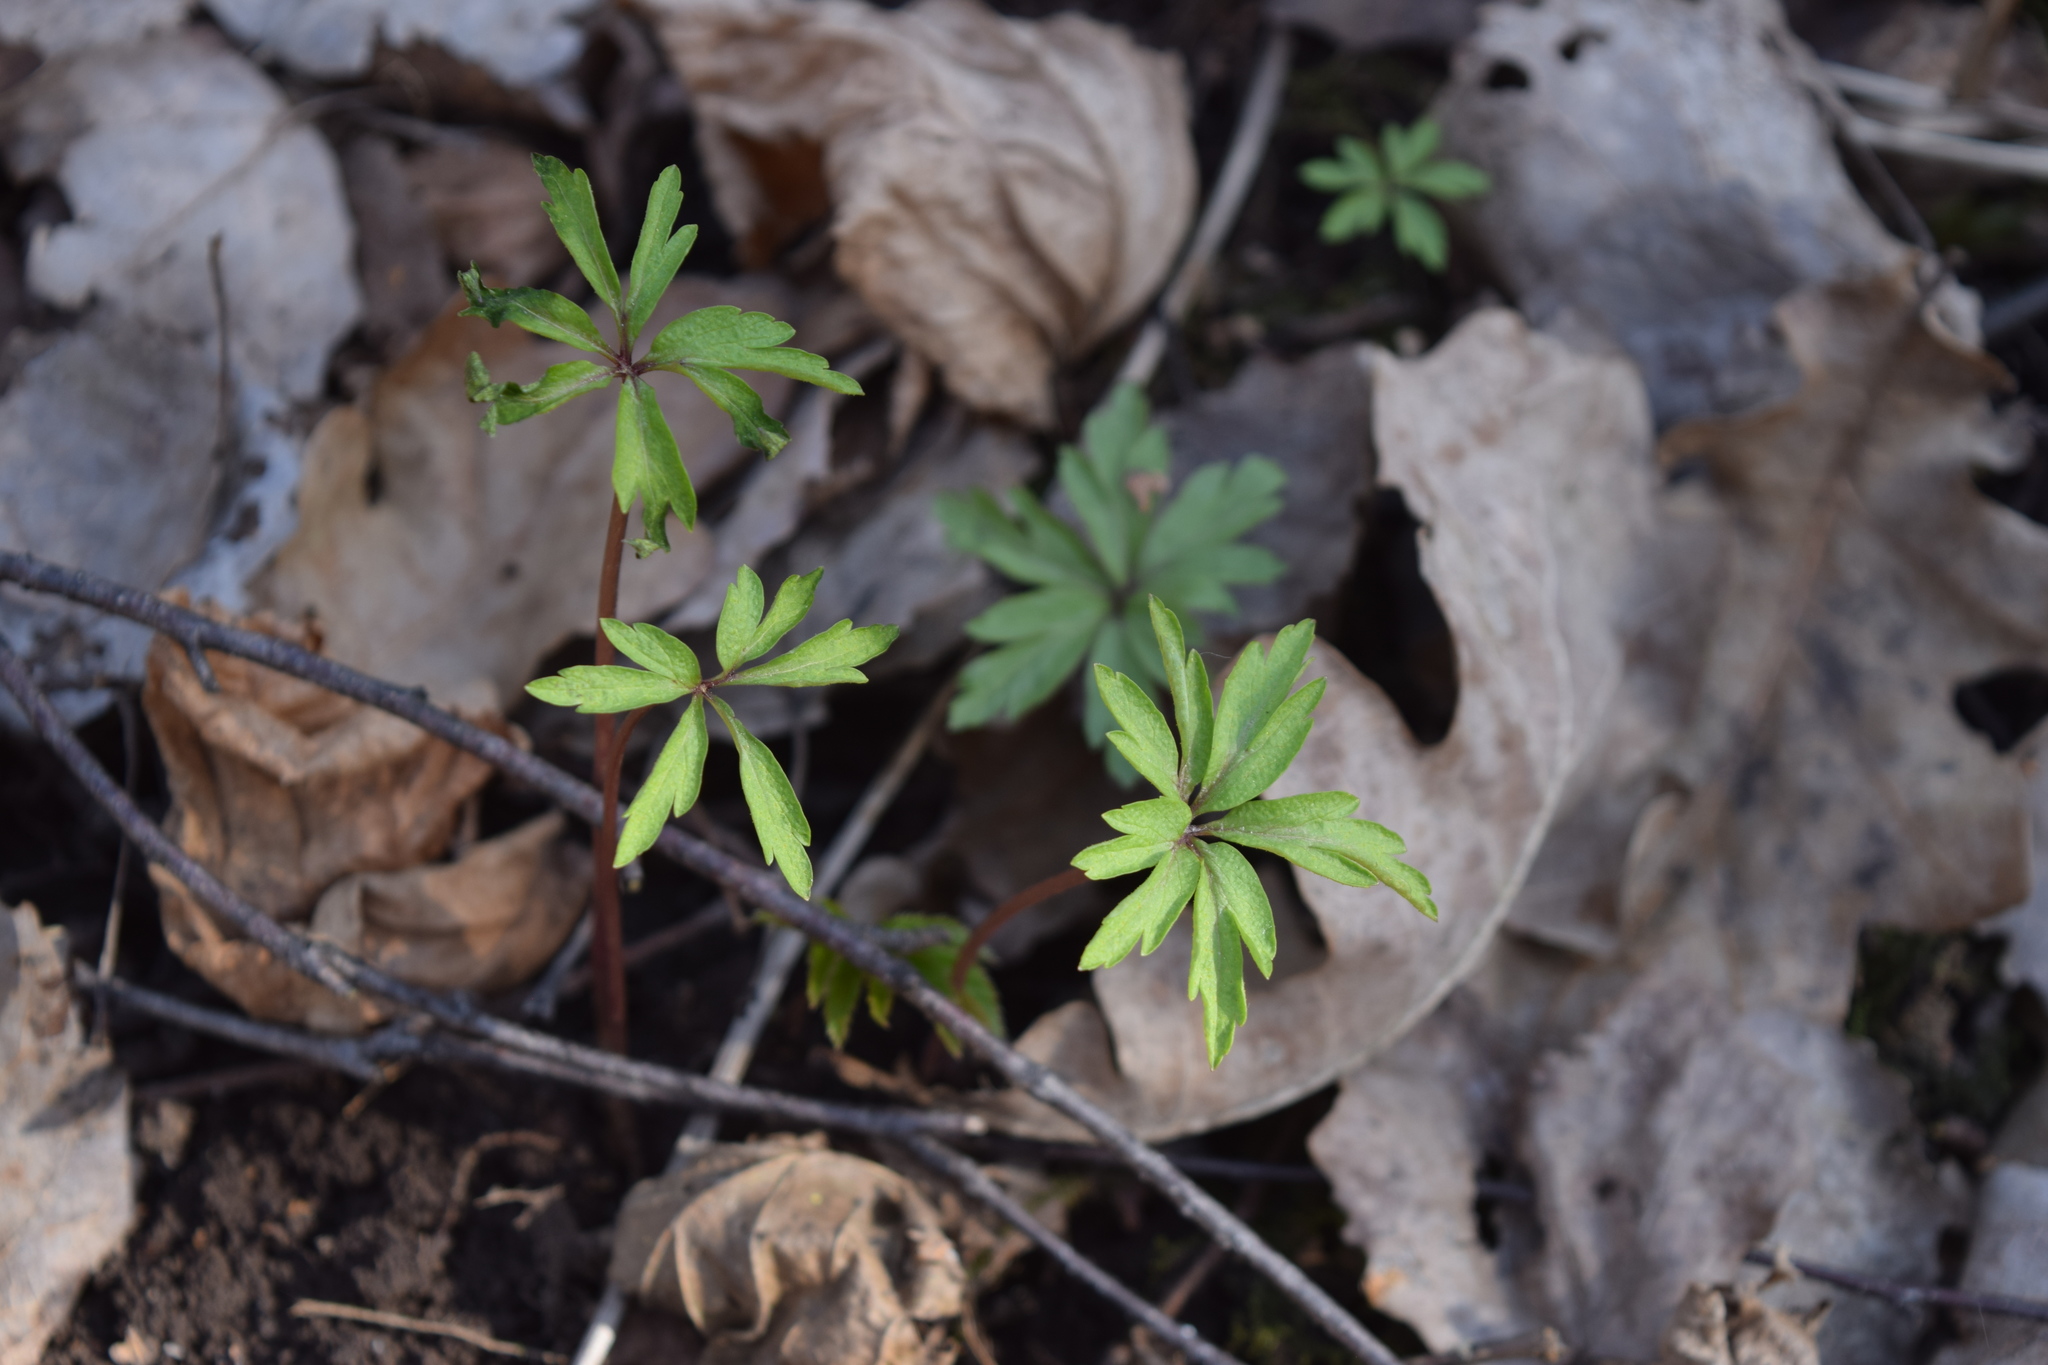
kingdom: Plantae
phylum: Tracheophyta
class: Magnoliopsida
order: Ranunculales
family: Ranunculaceae
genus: Anemone
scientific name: Anemone ranunculoides
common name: Yellow anemone
